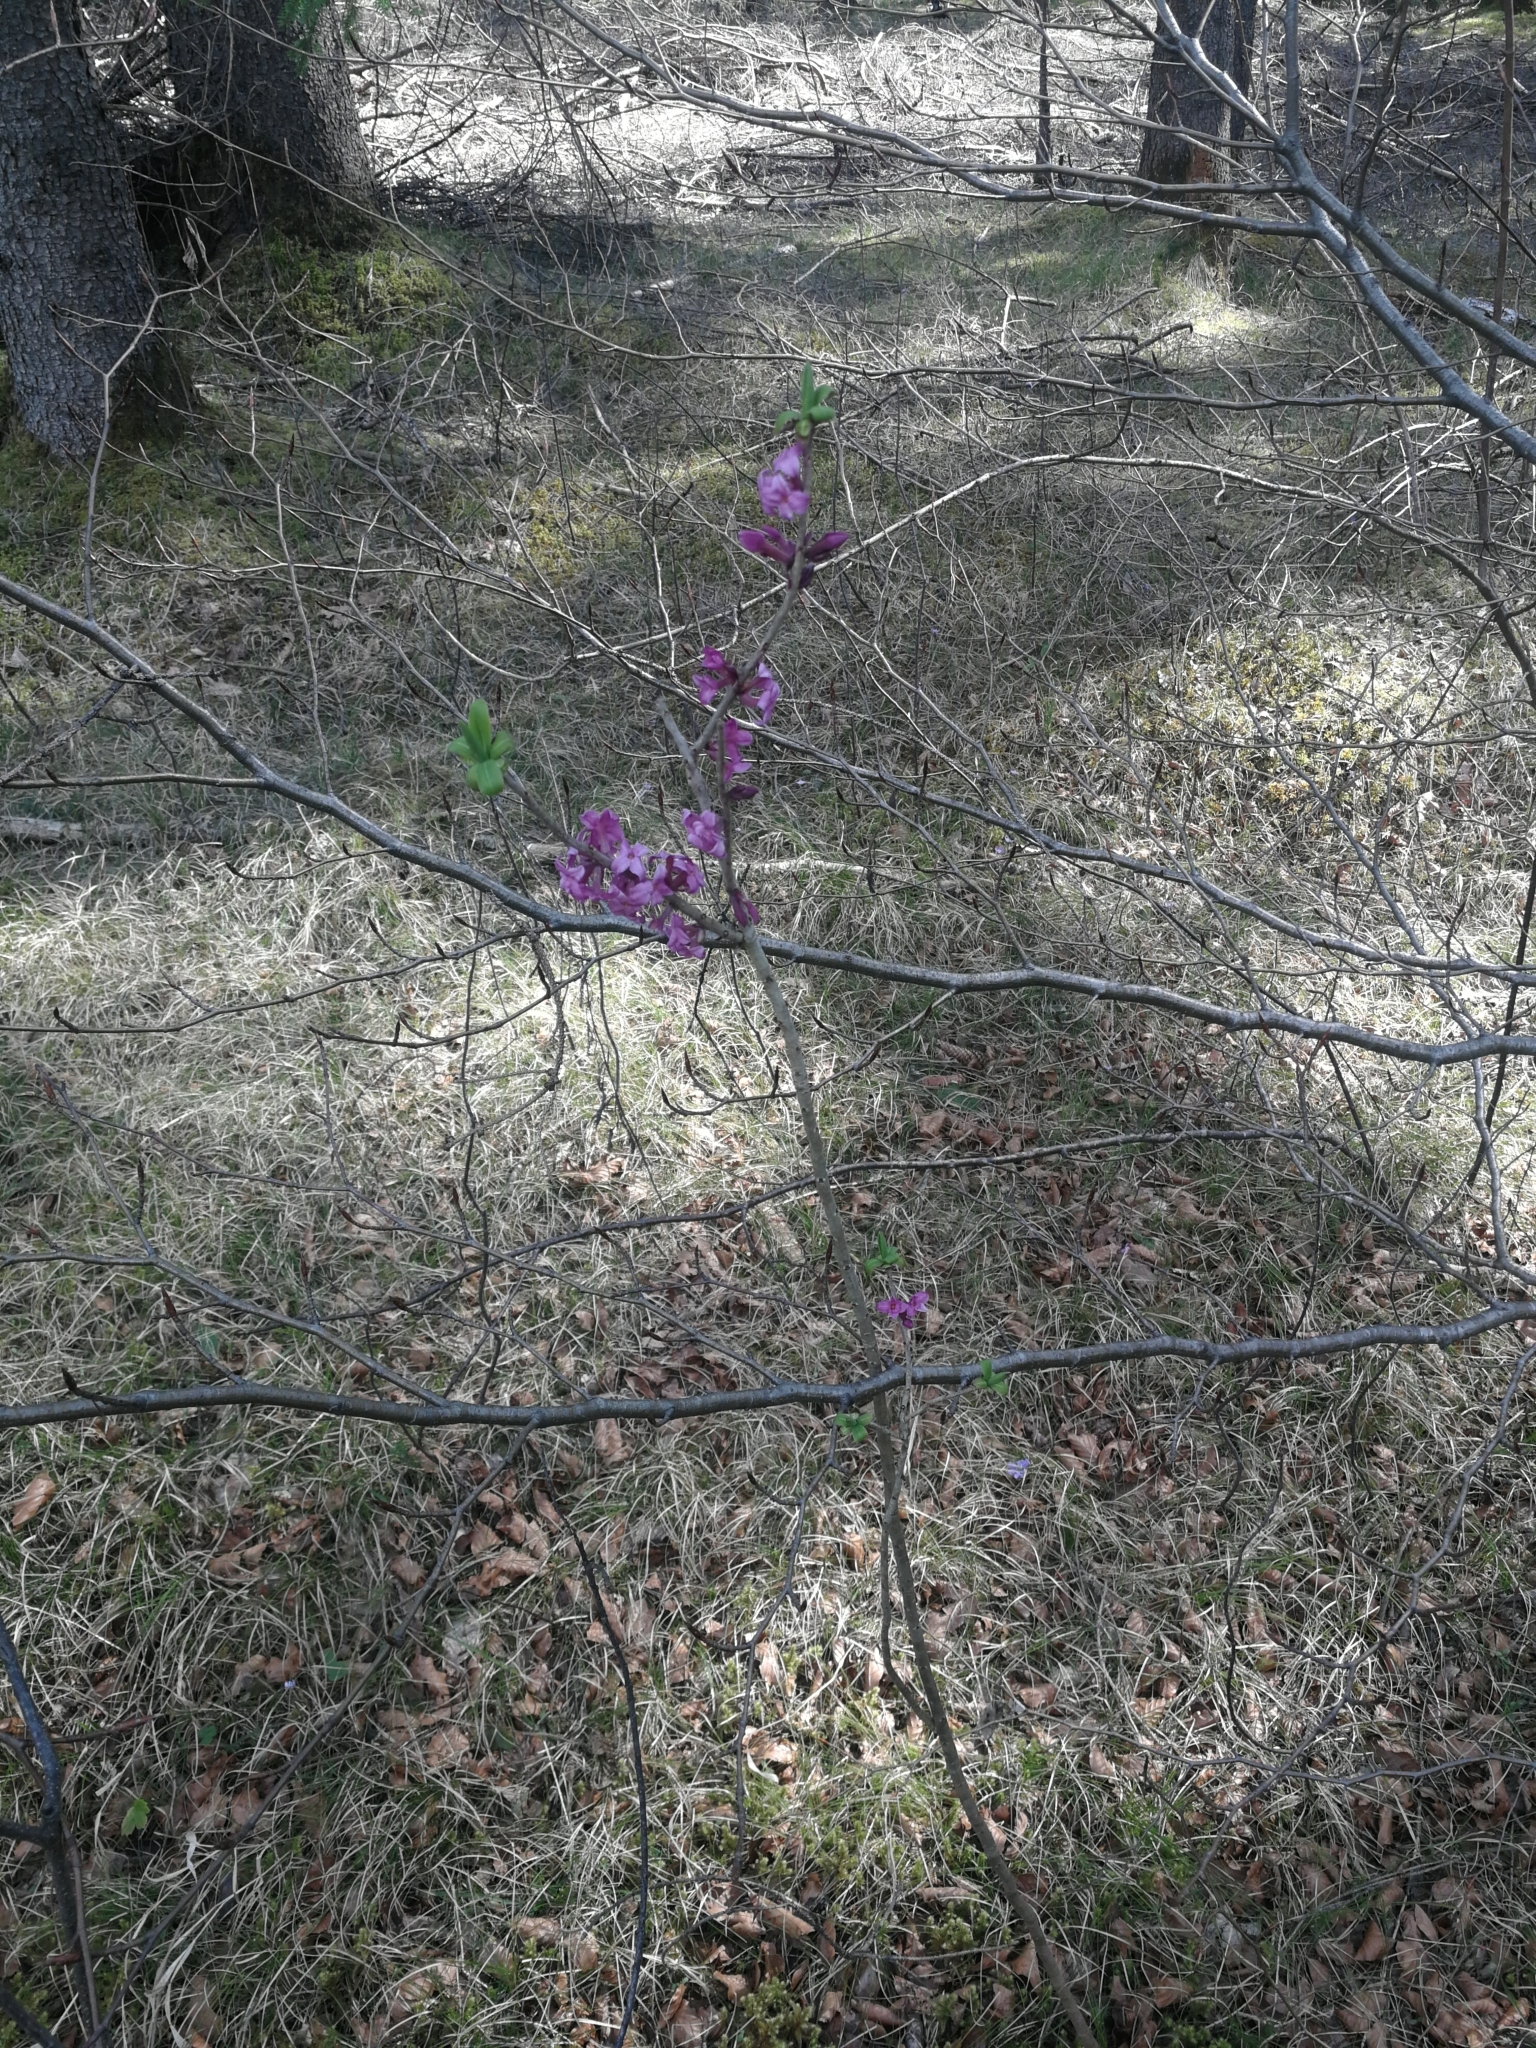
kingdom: Plantae
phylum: Tracheophyta
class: Magnoliopsida
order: Malvales
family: Thymelaeaceae
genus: Daphne
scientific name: Daphne mezereum
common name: Mezereon
